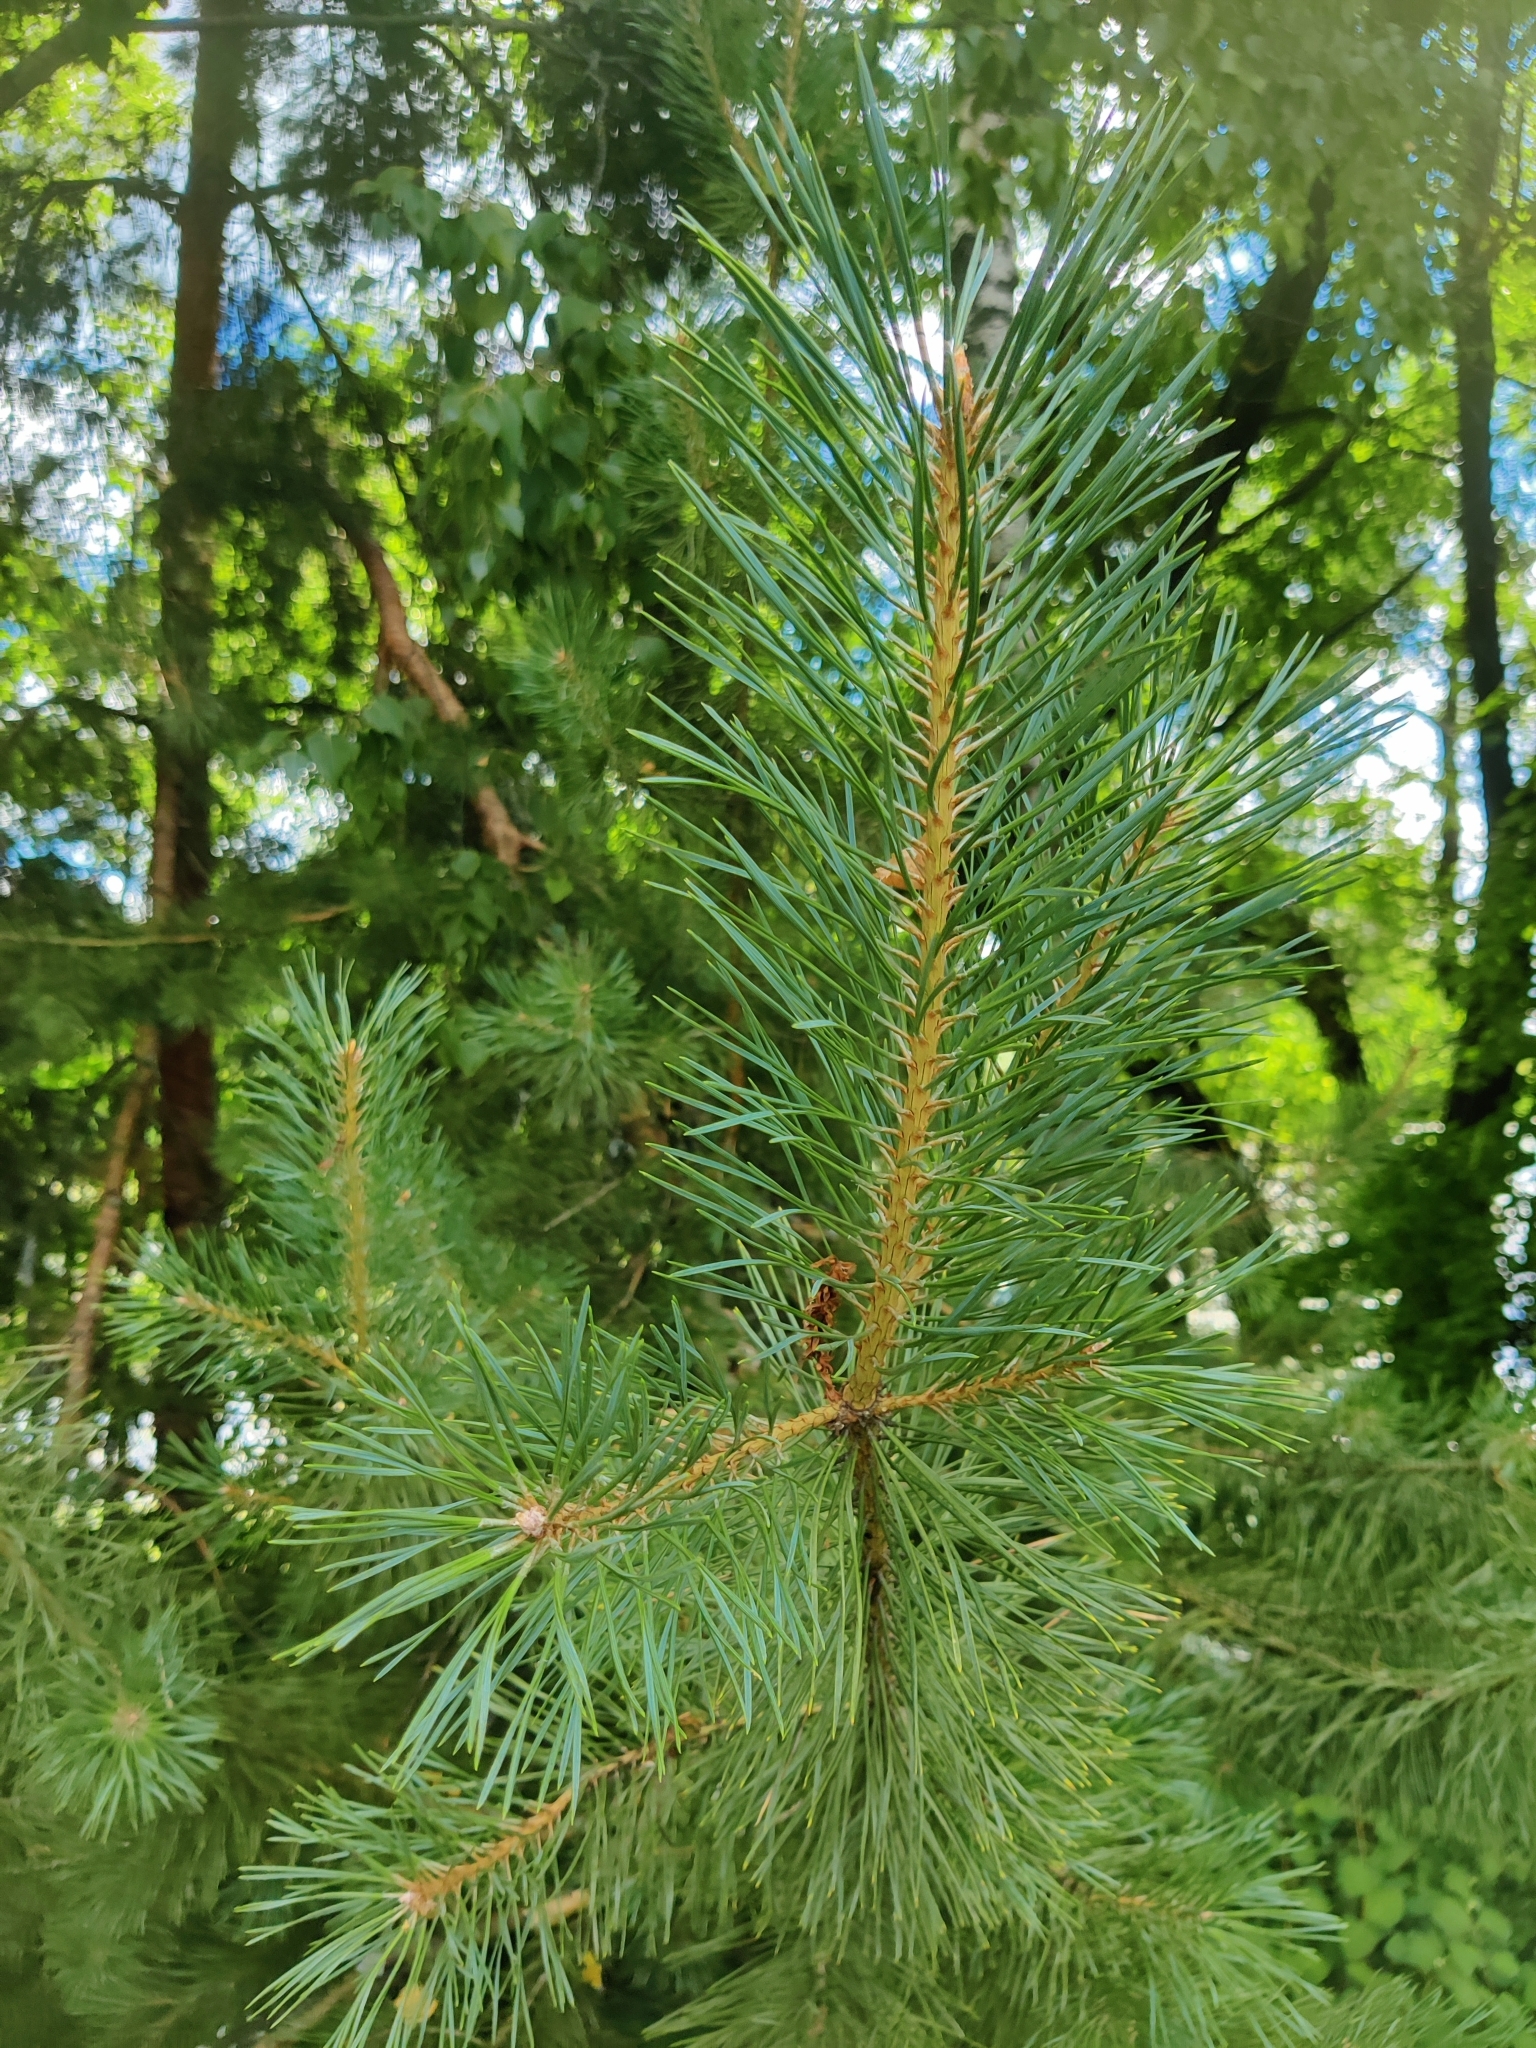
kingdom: Plantae
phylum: Tracheophyta
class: Pinopsida
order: Pinales
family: Pinaceae
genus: Pinus
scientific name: Pinus sylvestris
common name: Scots pine
